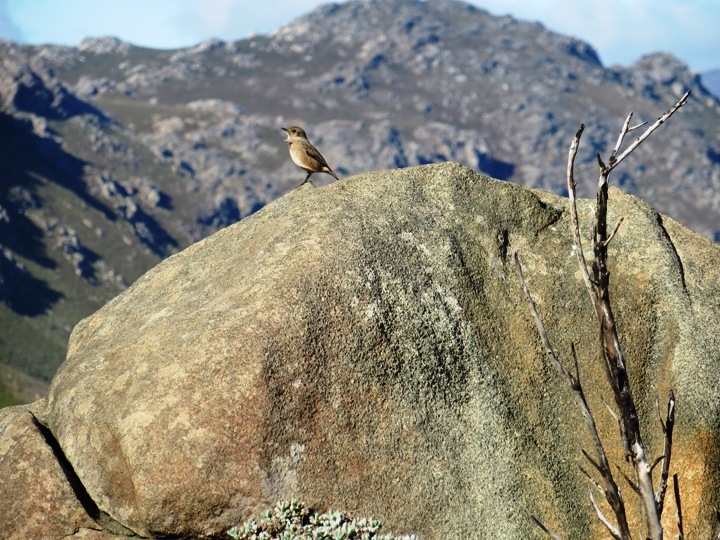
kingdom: Animalia
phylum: Chordata
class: Aves
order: Passeriformes
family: Muscicapidae
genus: Oenanthe
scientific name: Oenanthe familiaris
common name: Familiar chat
